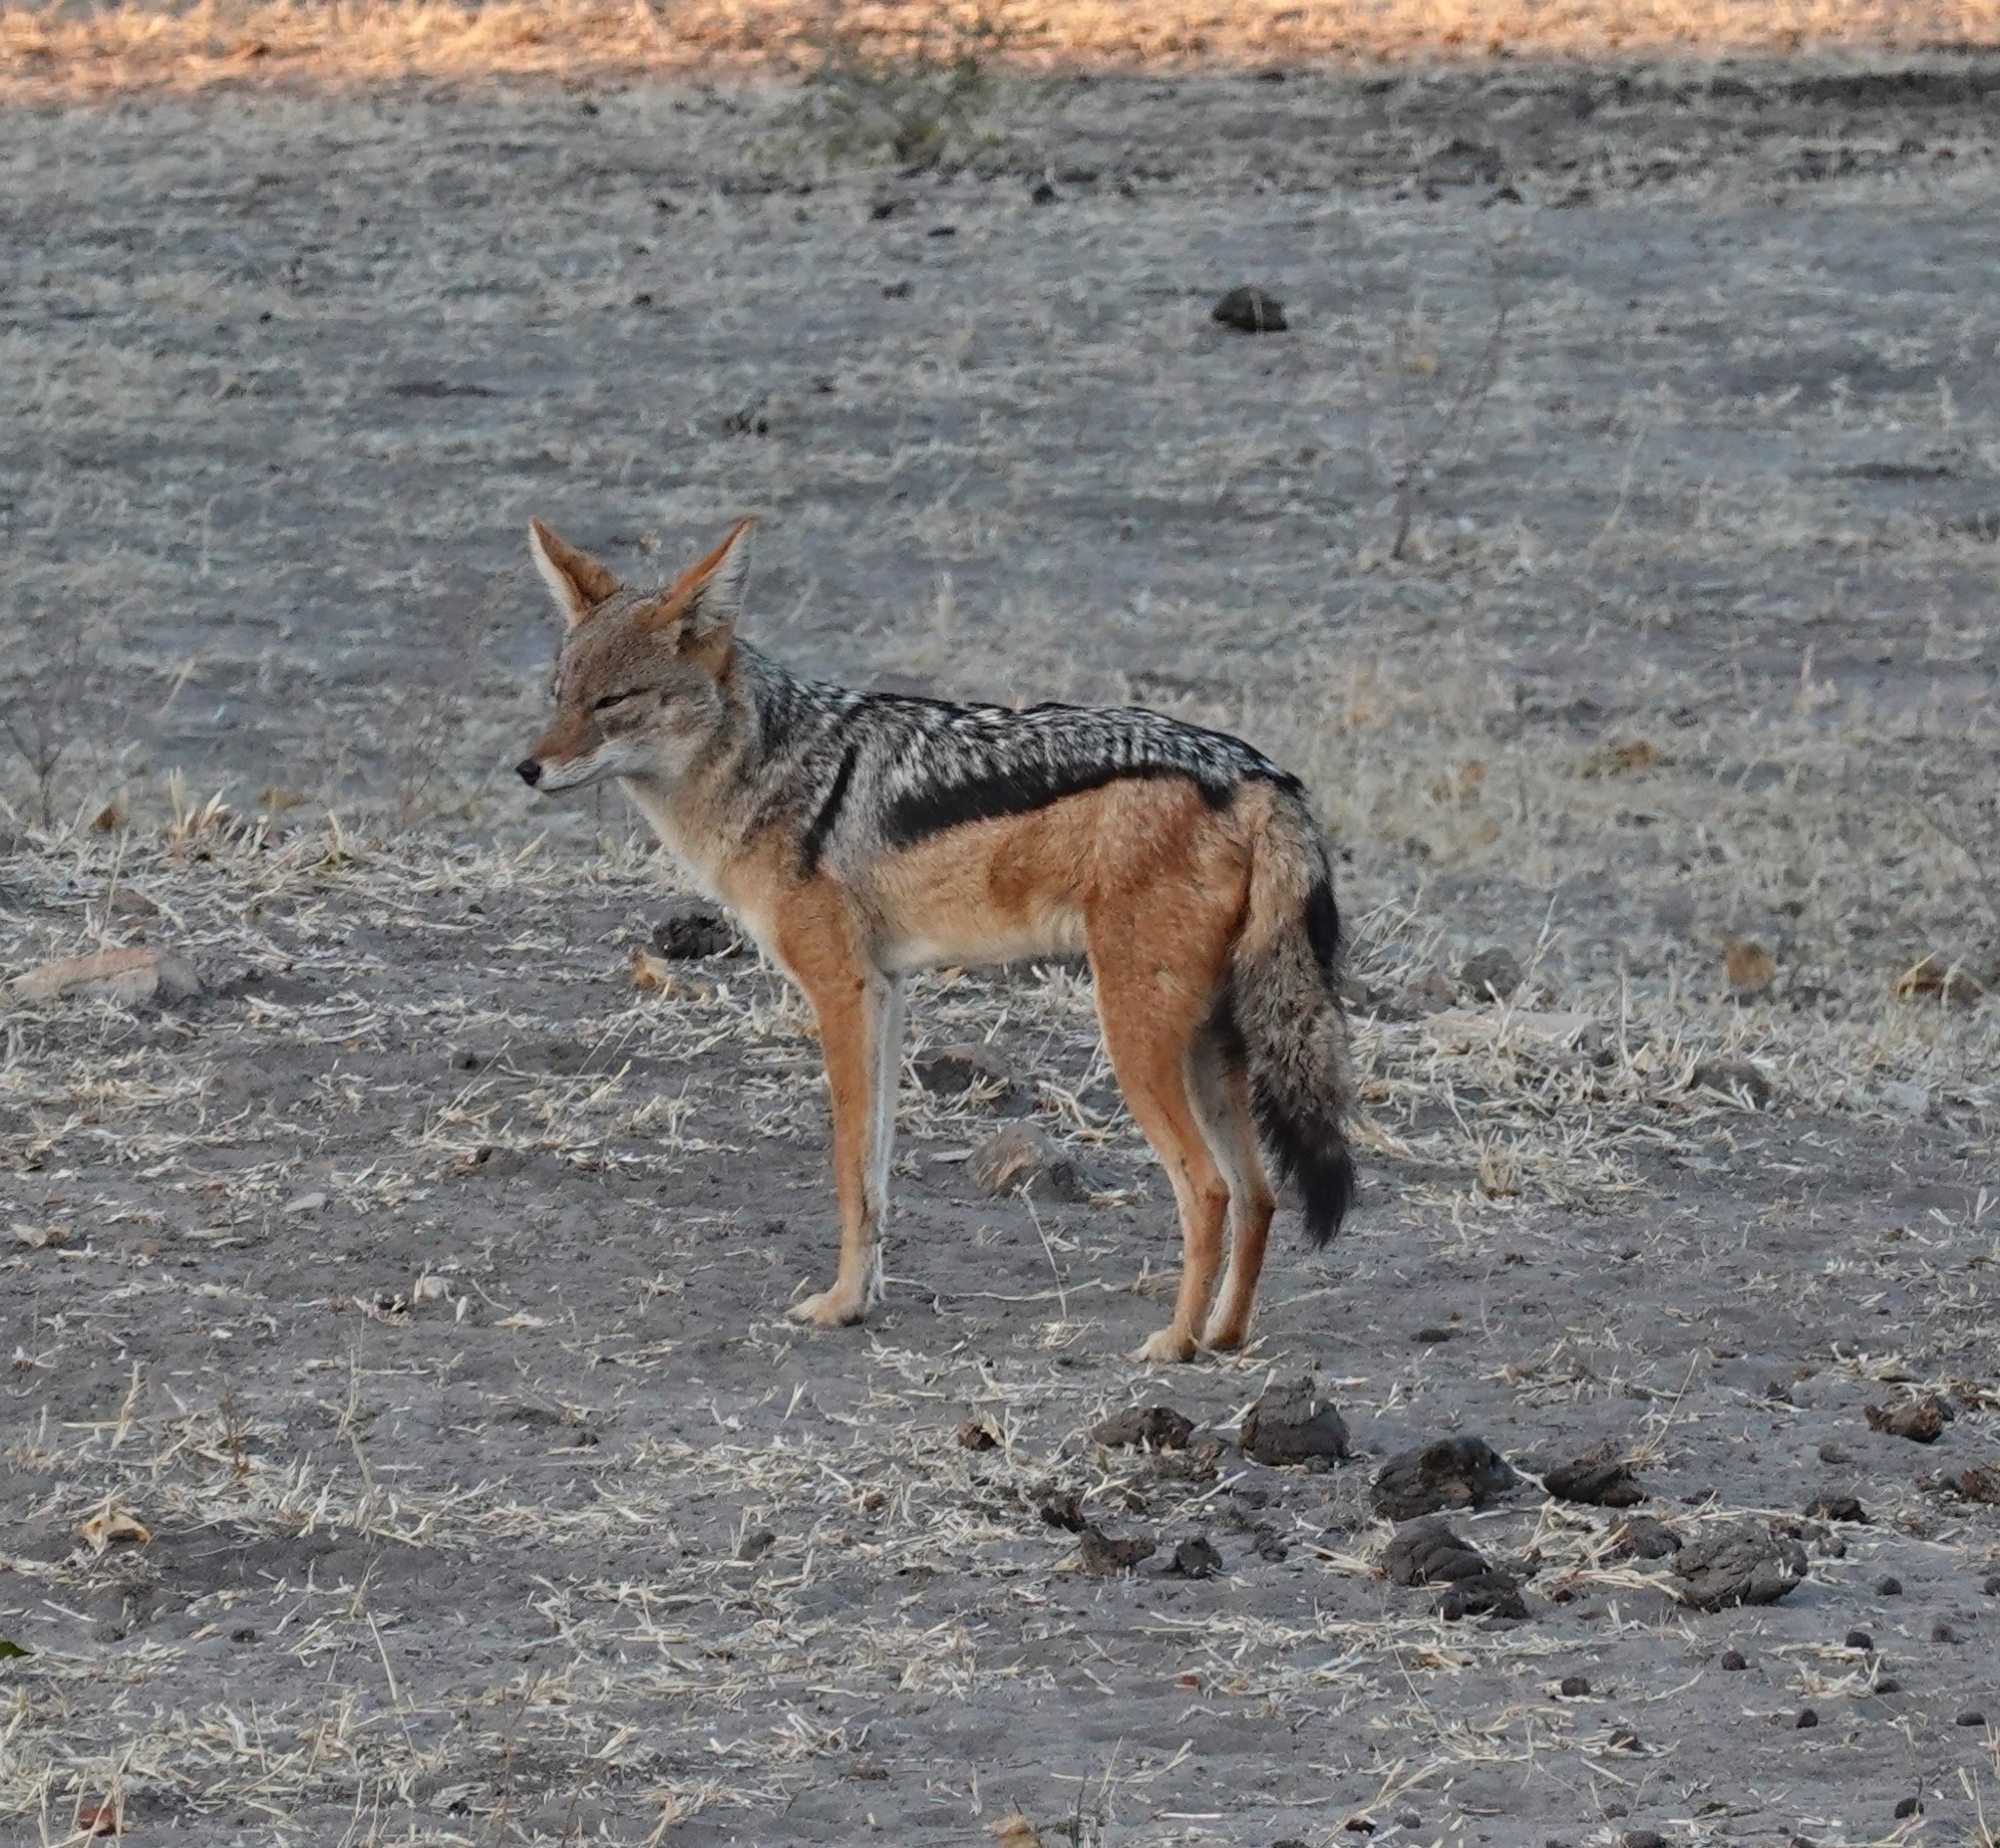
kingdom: Animalia
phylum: Chordata
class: Mammalia
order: Carnivora
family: Canidae
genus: Lupulella
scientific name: Lupulella
